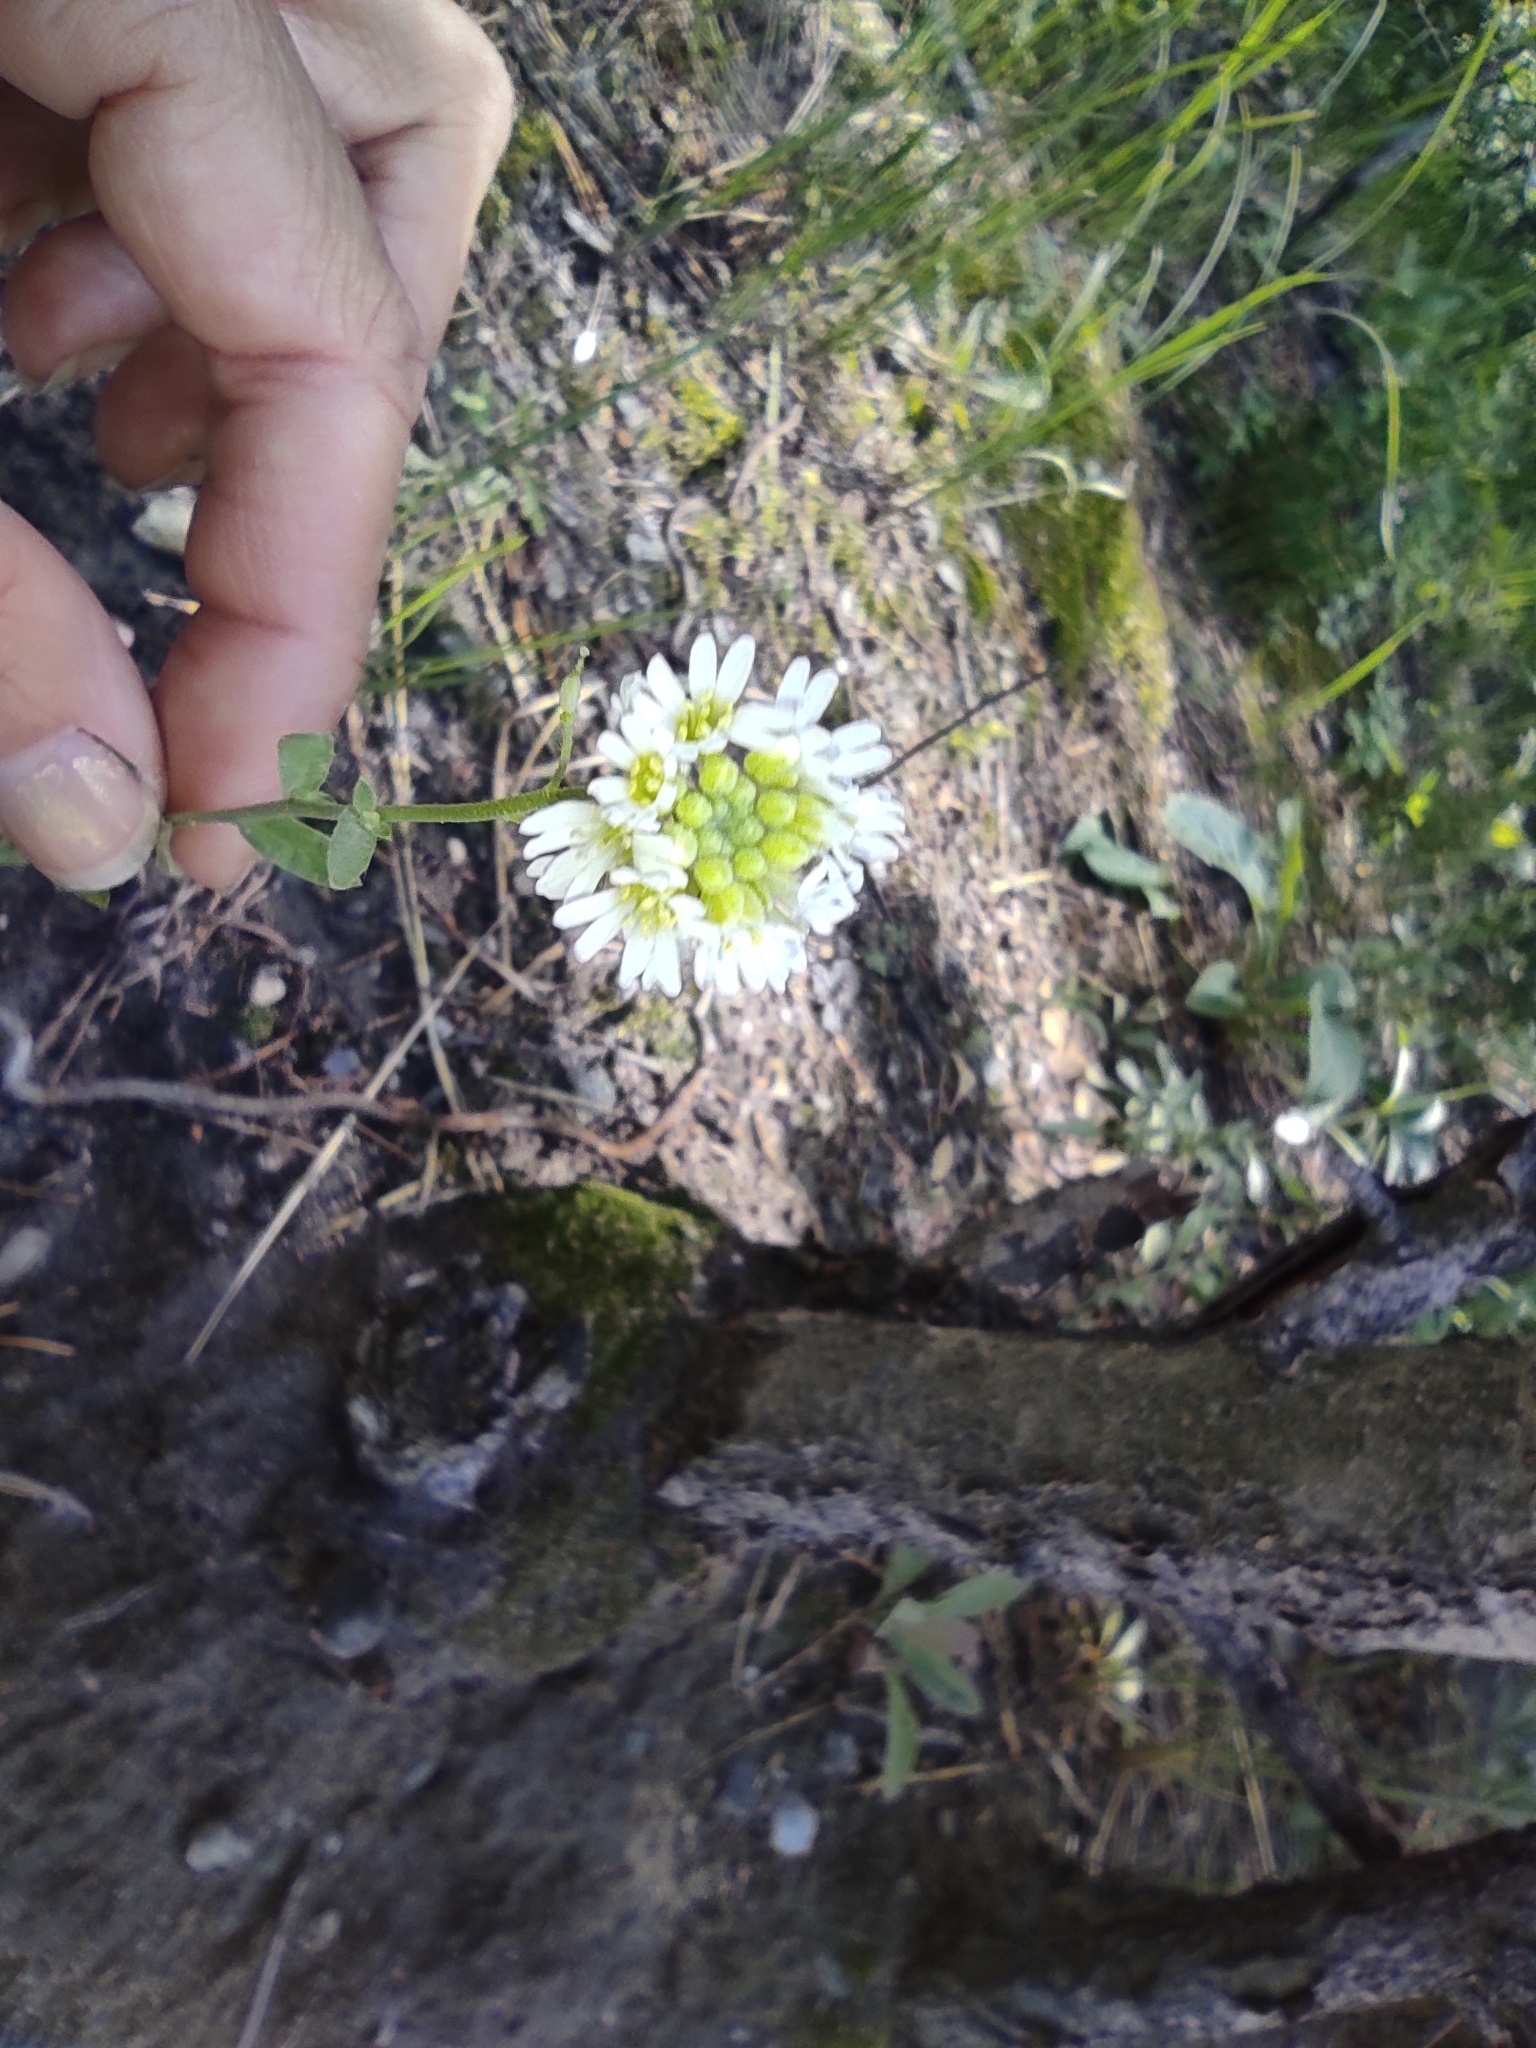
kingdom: Plantae
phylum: Tracheophyta
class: Magnoliopsida
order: Brassicales
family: Brassicaceae
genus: Berteroa
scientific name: Berteroa incana
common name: Hoary alison
